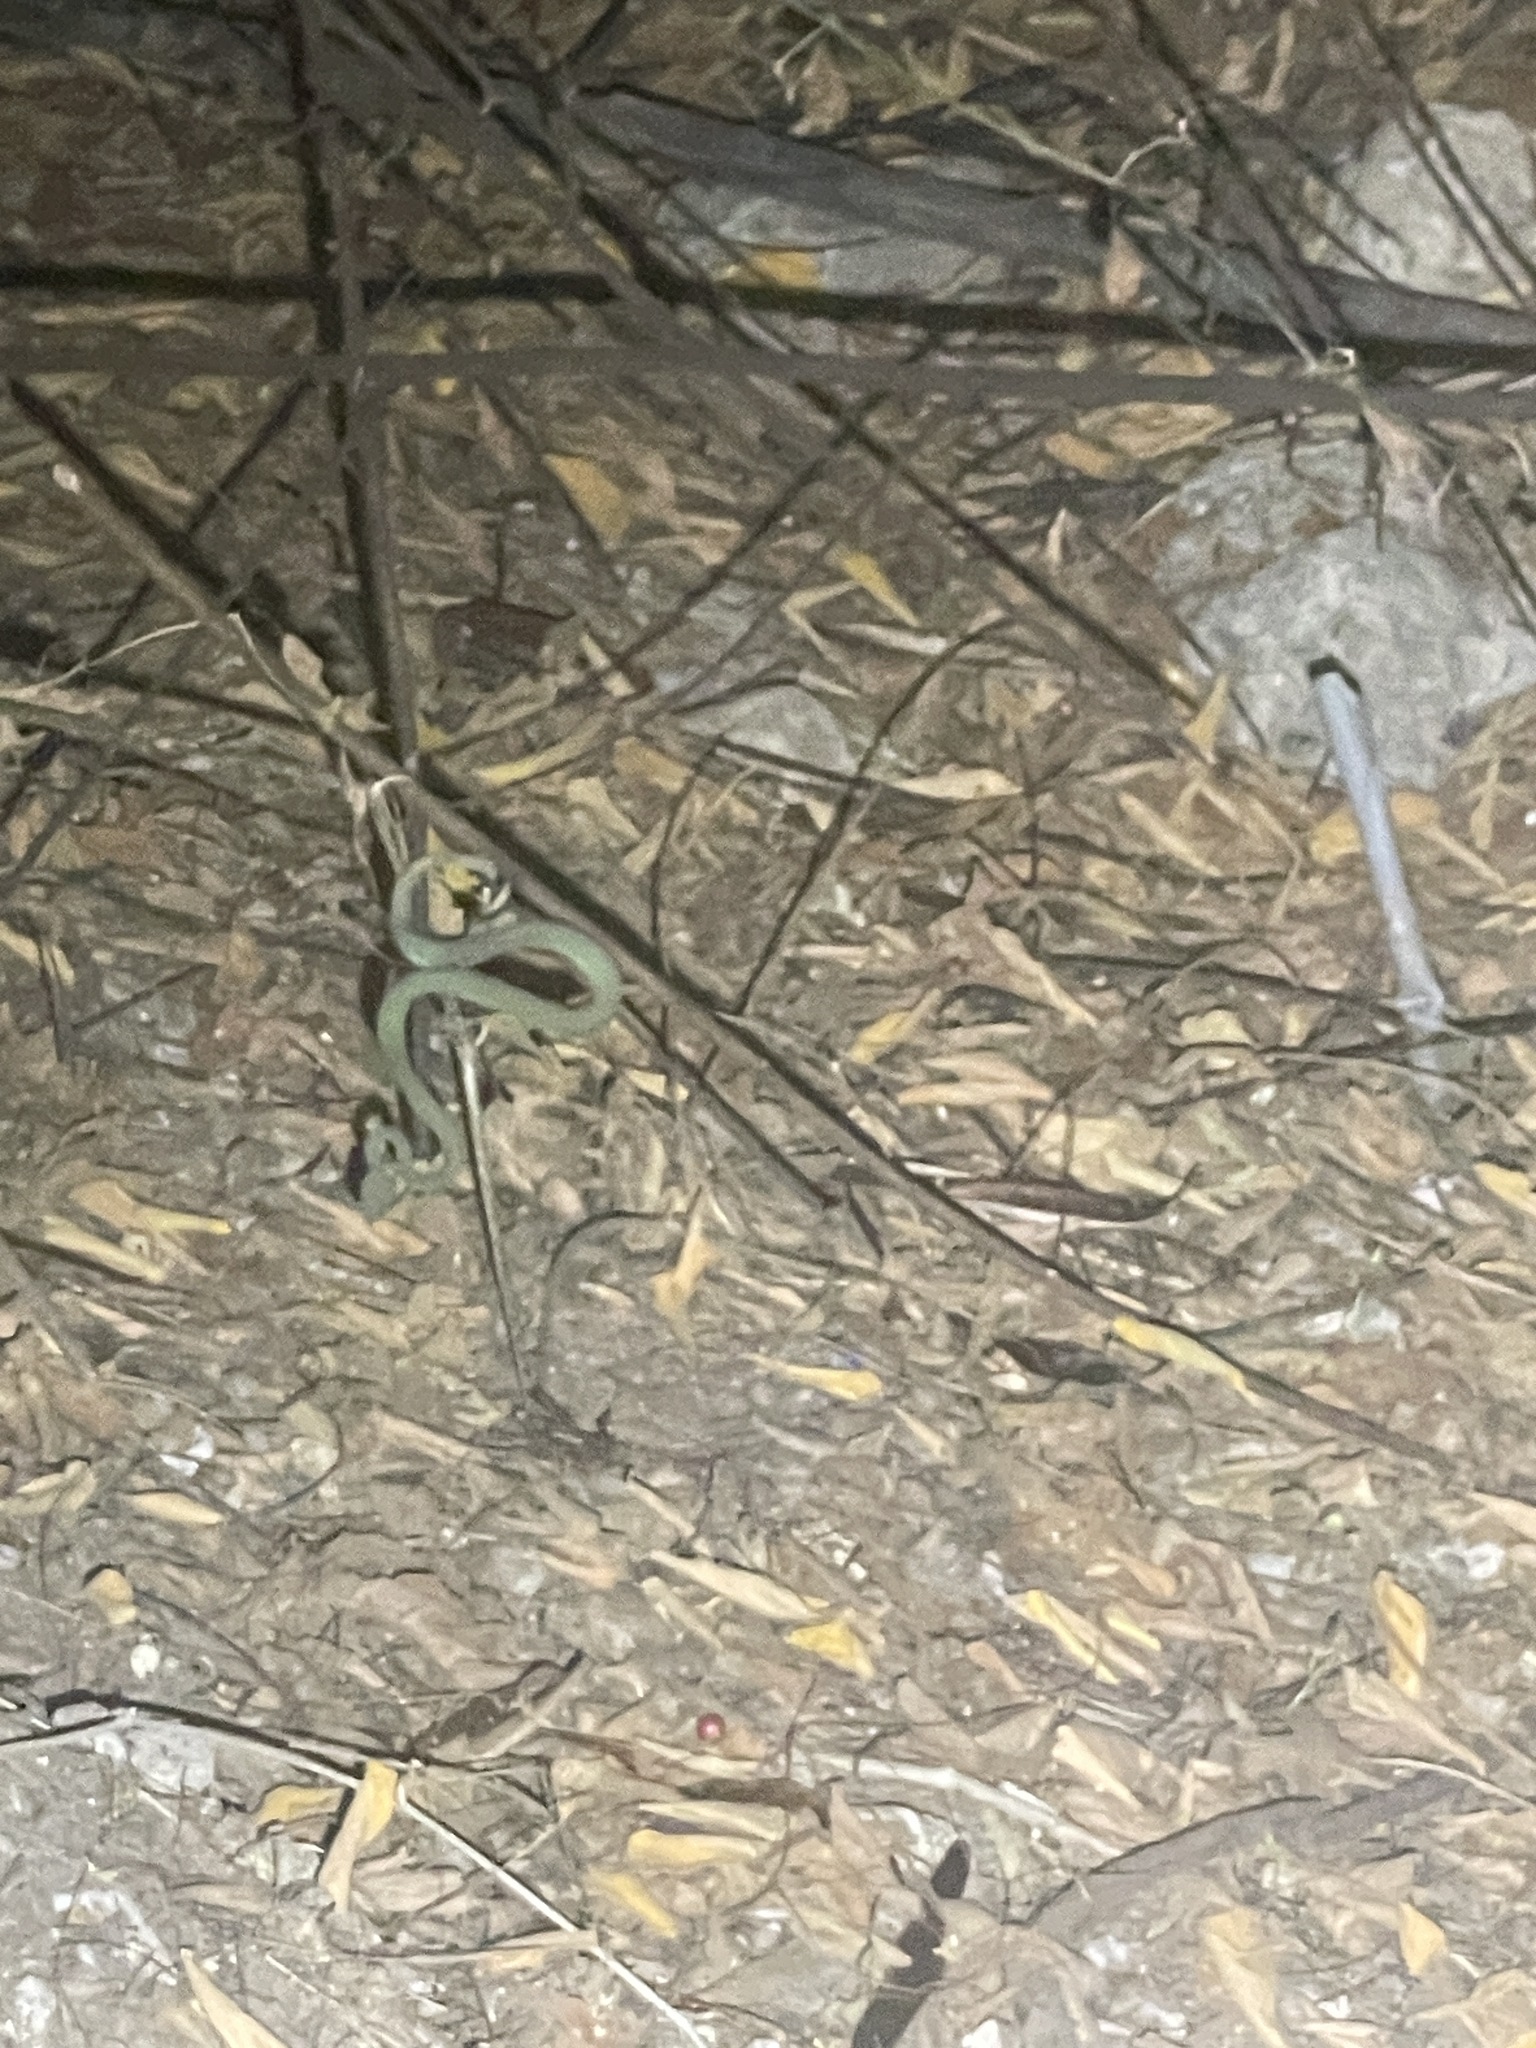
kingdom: Animalia
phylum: Chordata
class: Squamata
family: Viperidae
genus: Trimeresurus
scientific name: Trimeresurus macrops
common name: Kramer's pit viper
